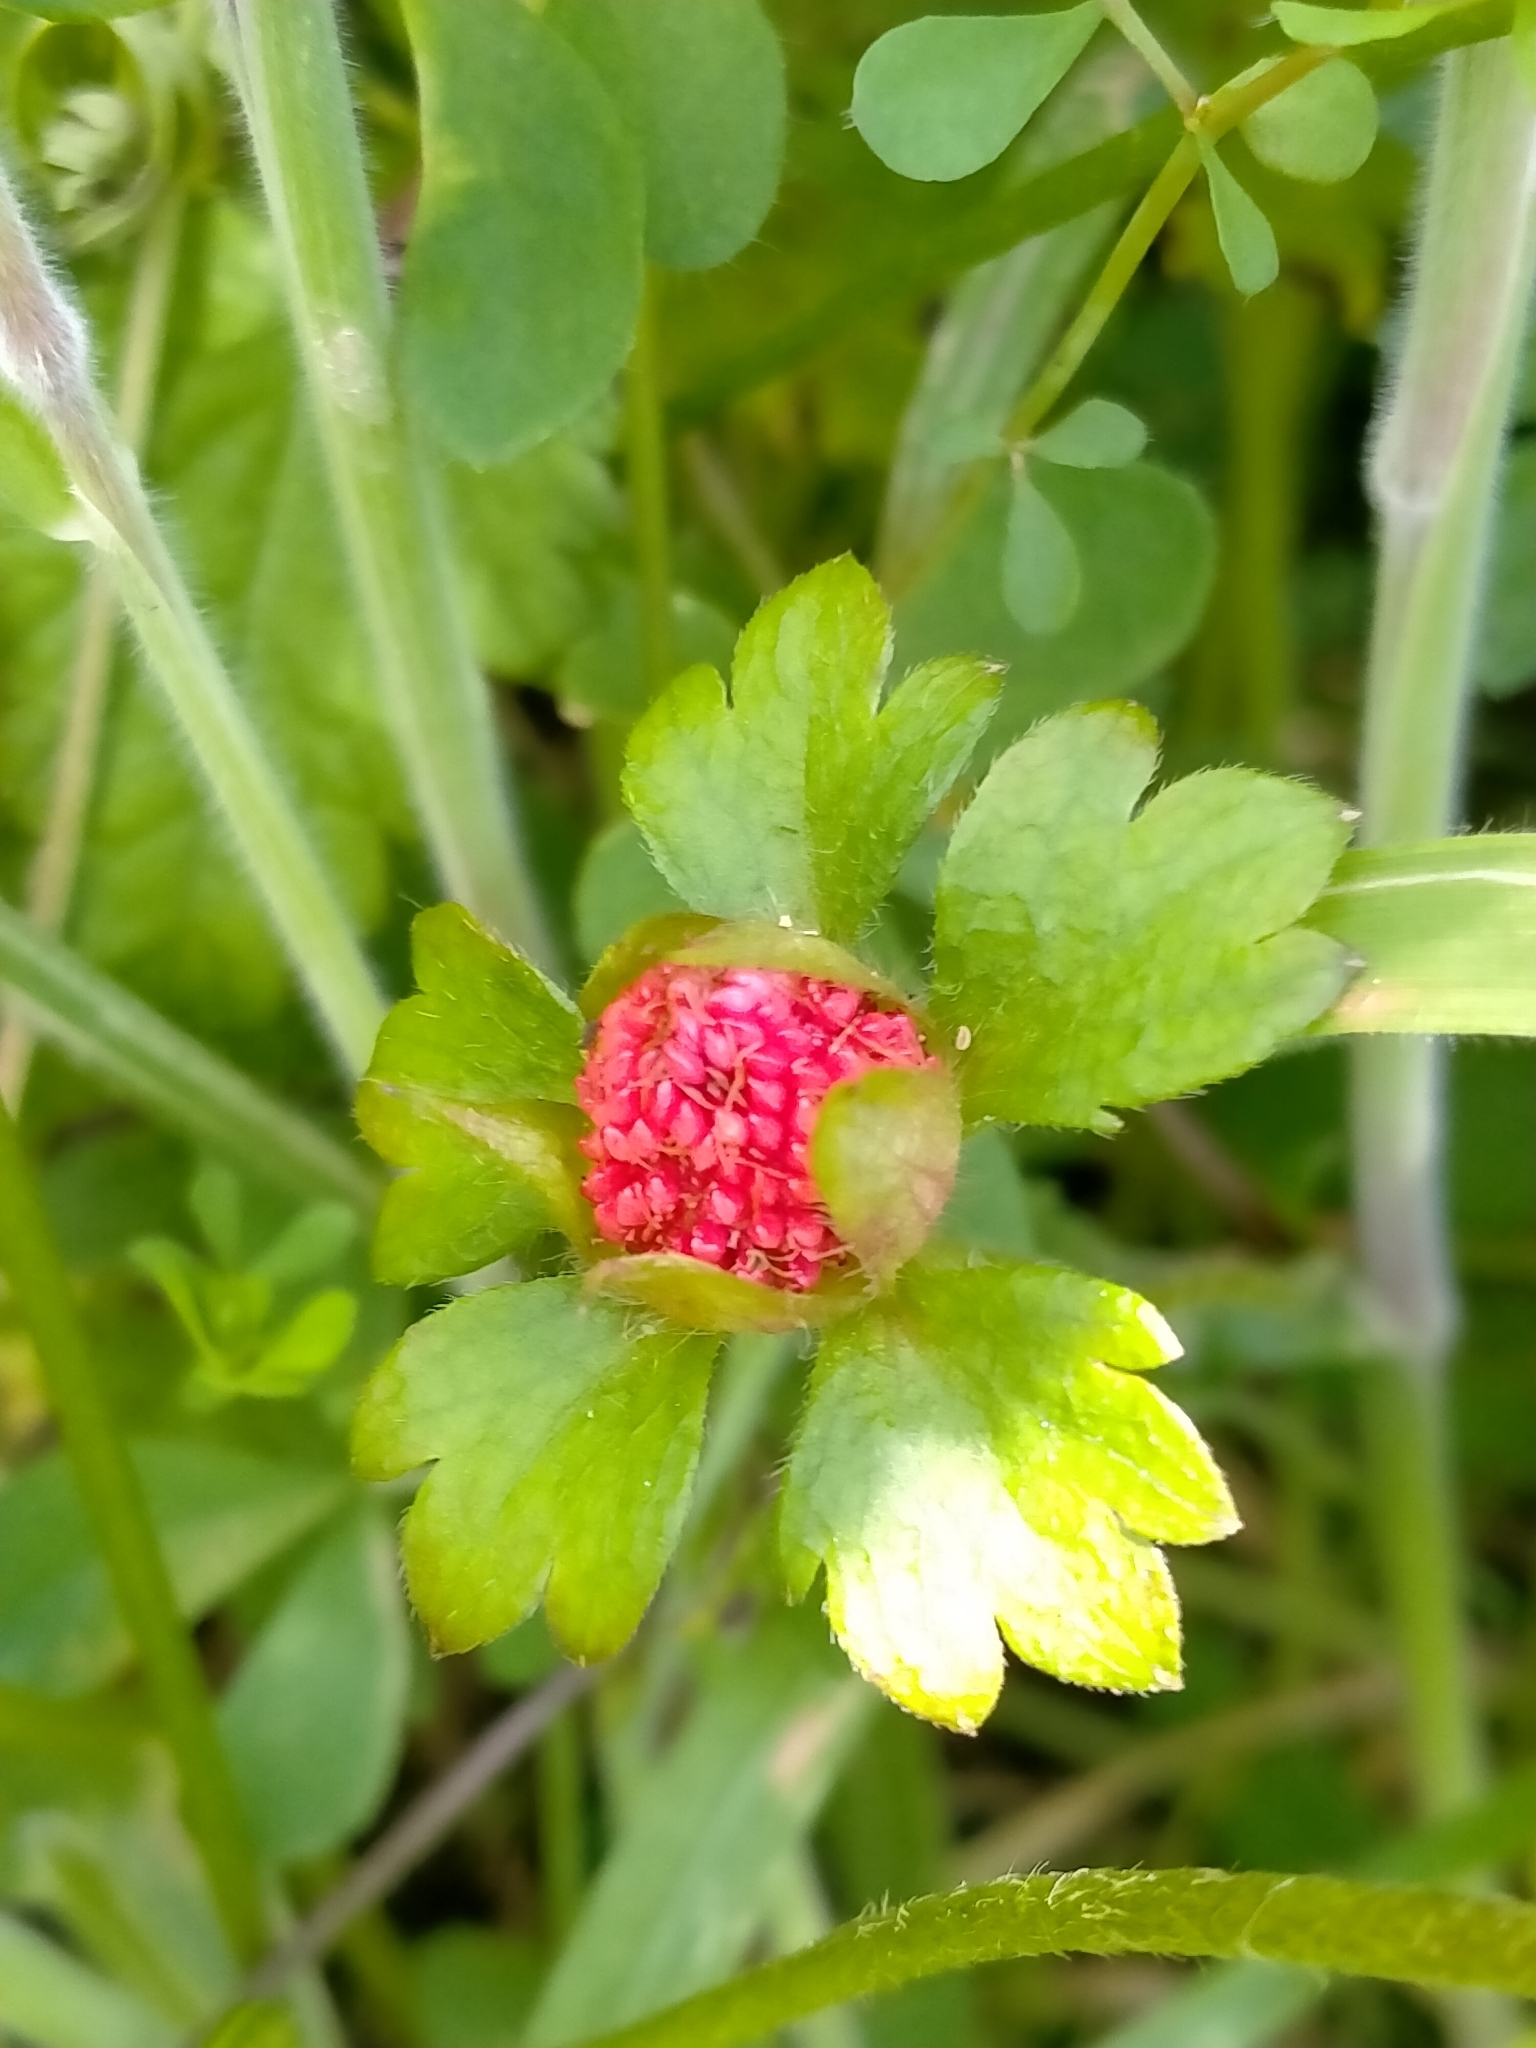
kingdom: Plantae
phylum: Tracheophyta
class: Magnoliopsida
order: Rosales
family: Rosaceae
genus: Potentilla
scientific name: Potentilla indica
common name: Yellow-flowered strawberry
